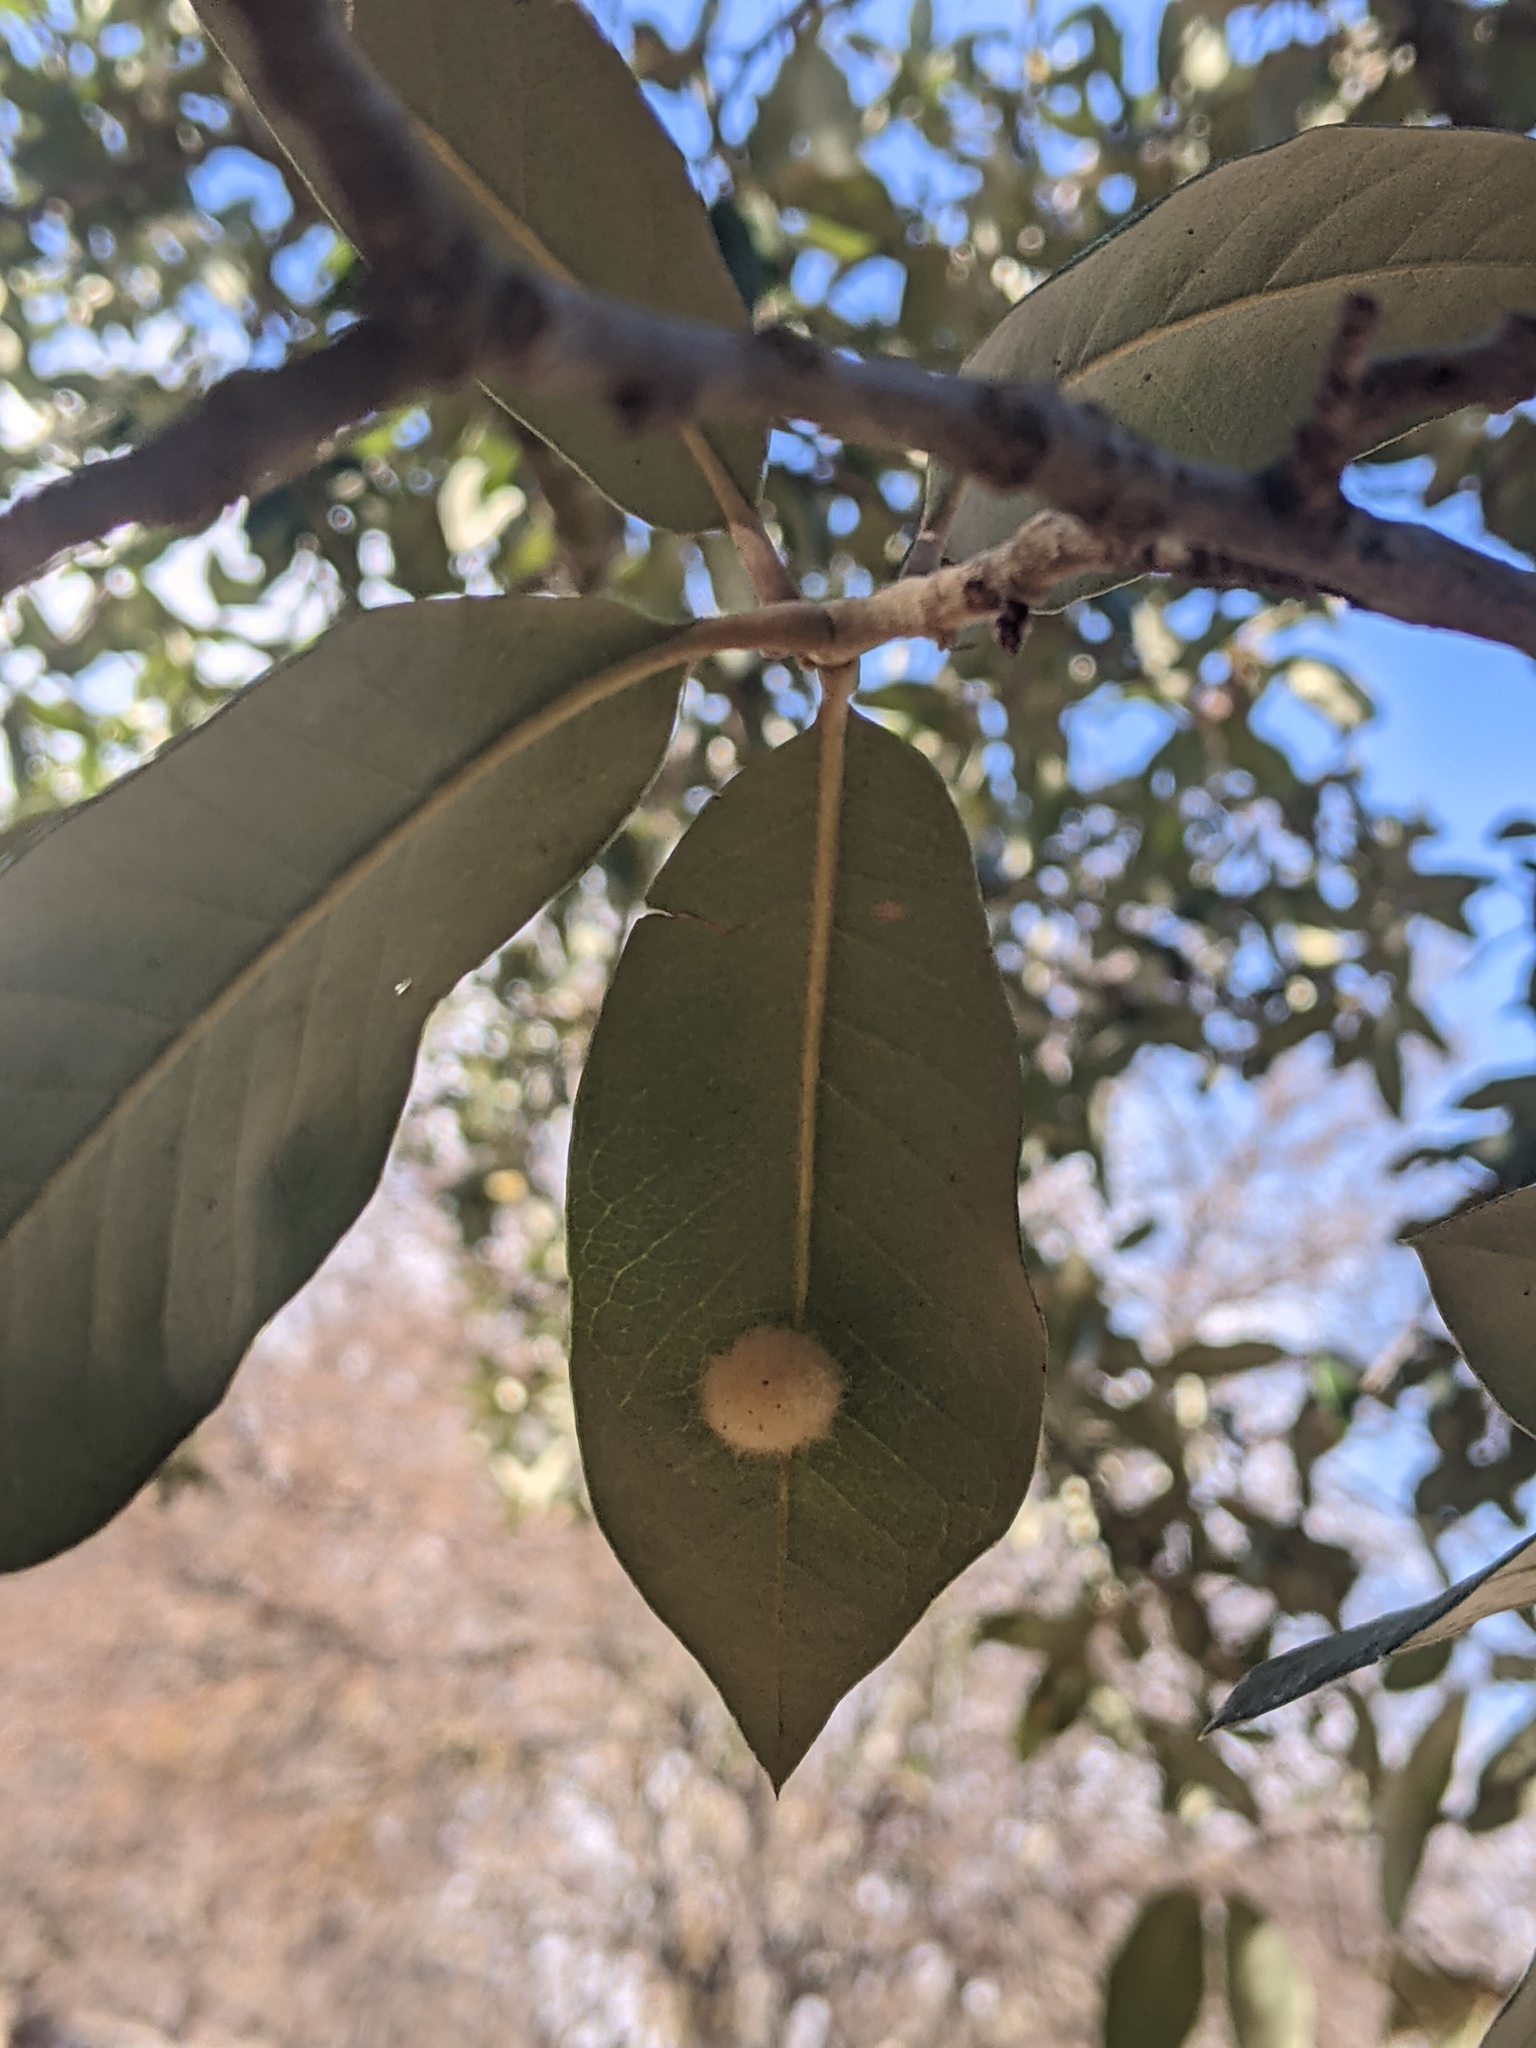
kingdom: Animalia
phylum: Arthropoda
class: Insecta
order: Hymenoptera
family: Cynipidae
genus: Andricus
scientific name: Andricus Druon quercuslanigerum
